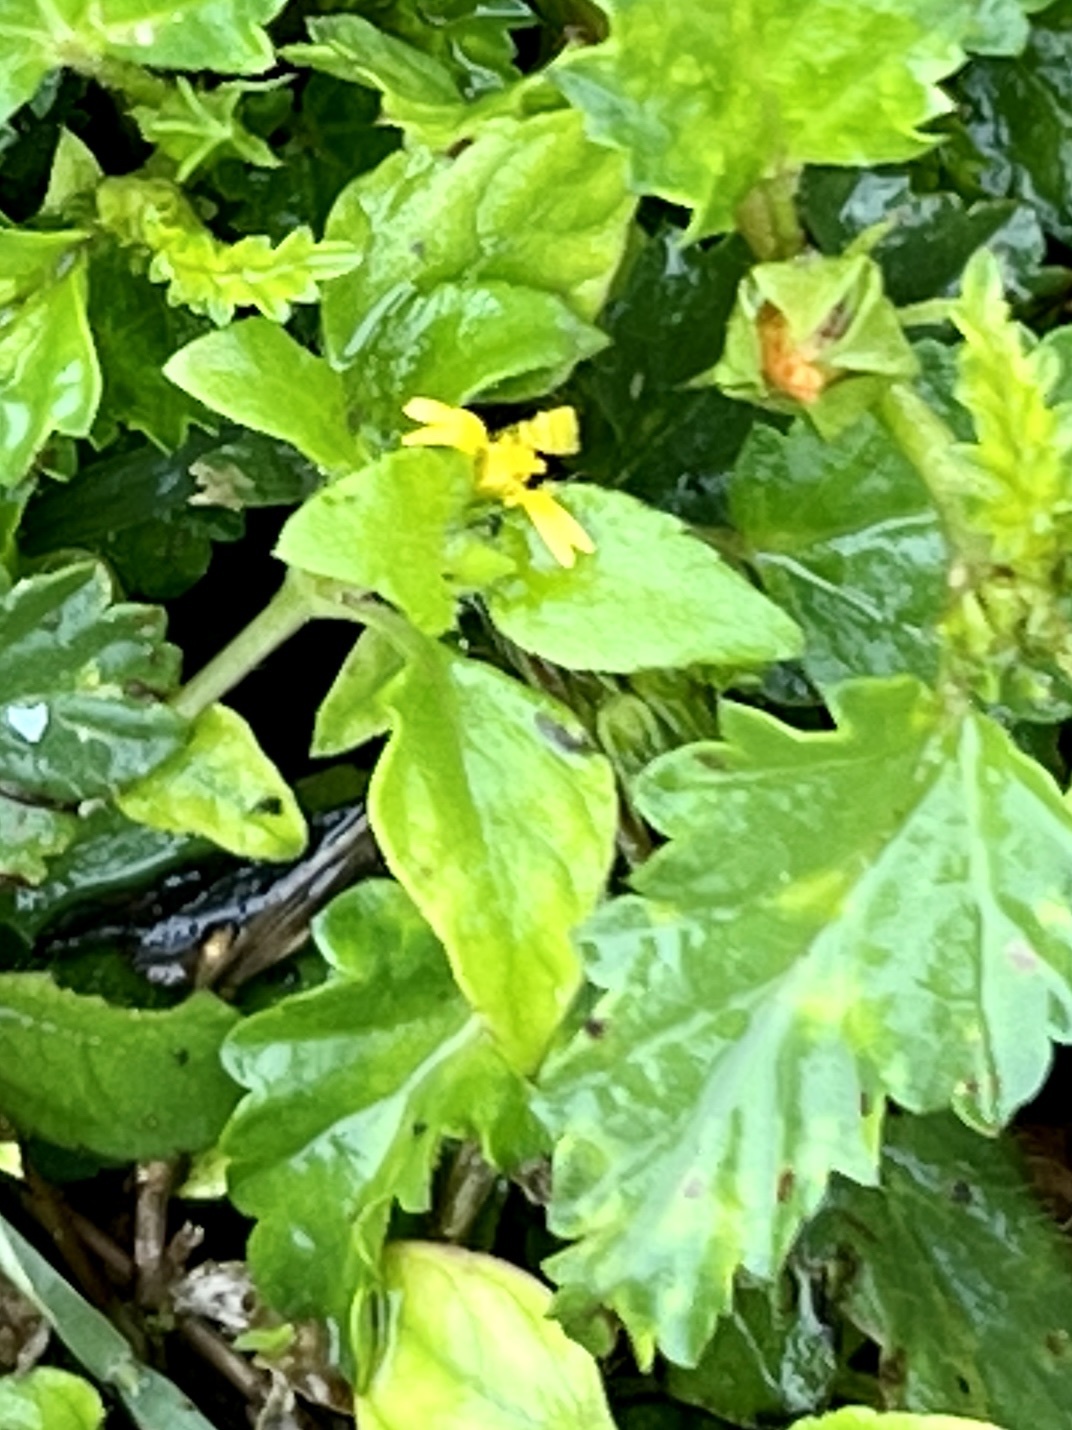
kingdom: Plantae
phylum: Tracheophyta
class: Magnoliopsida
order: Asterales
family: Asteraceae
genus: Calyptocarpus
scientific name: Calyptocarpus vialis
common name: Straggler daisy
